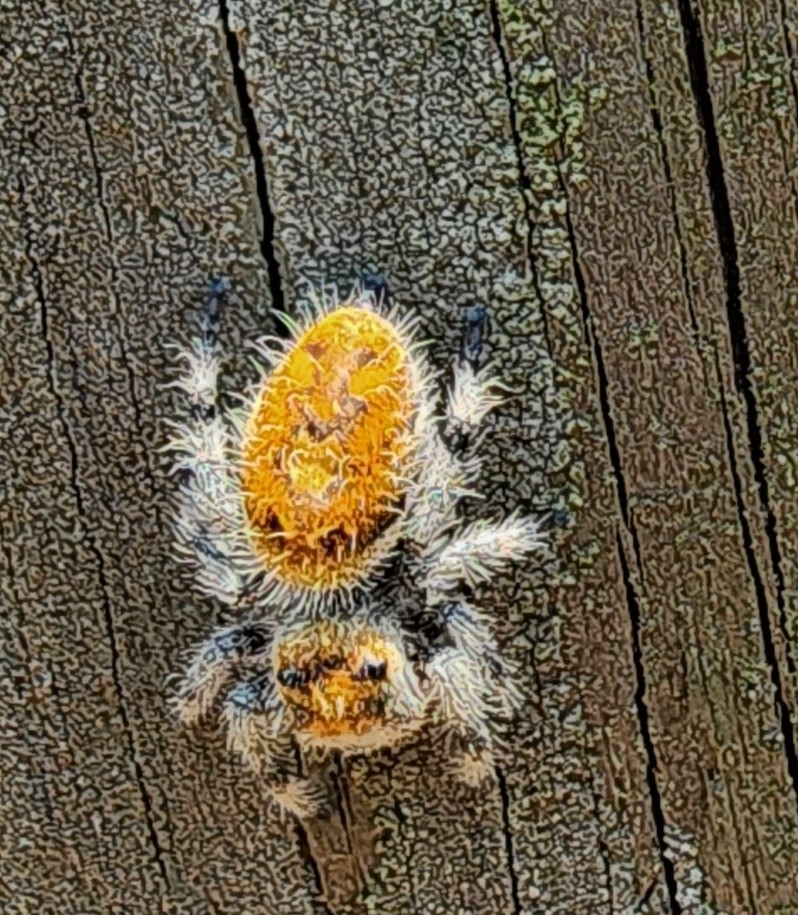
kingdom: Animalia
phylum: Arthropoda
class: Arachnida
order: Araneae
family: Salticidae
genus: Phidippus
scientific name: Phidippus regius
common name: Regal jumper
